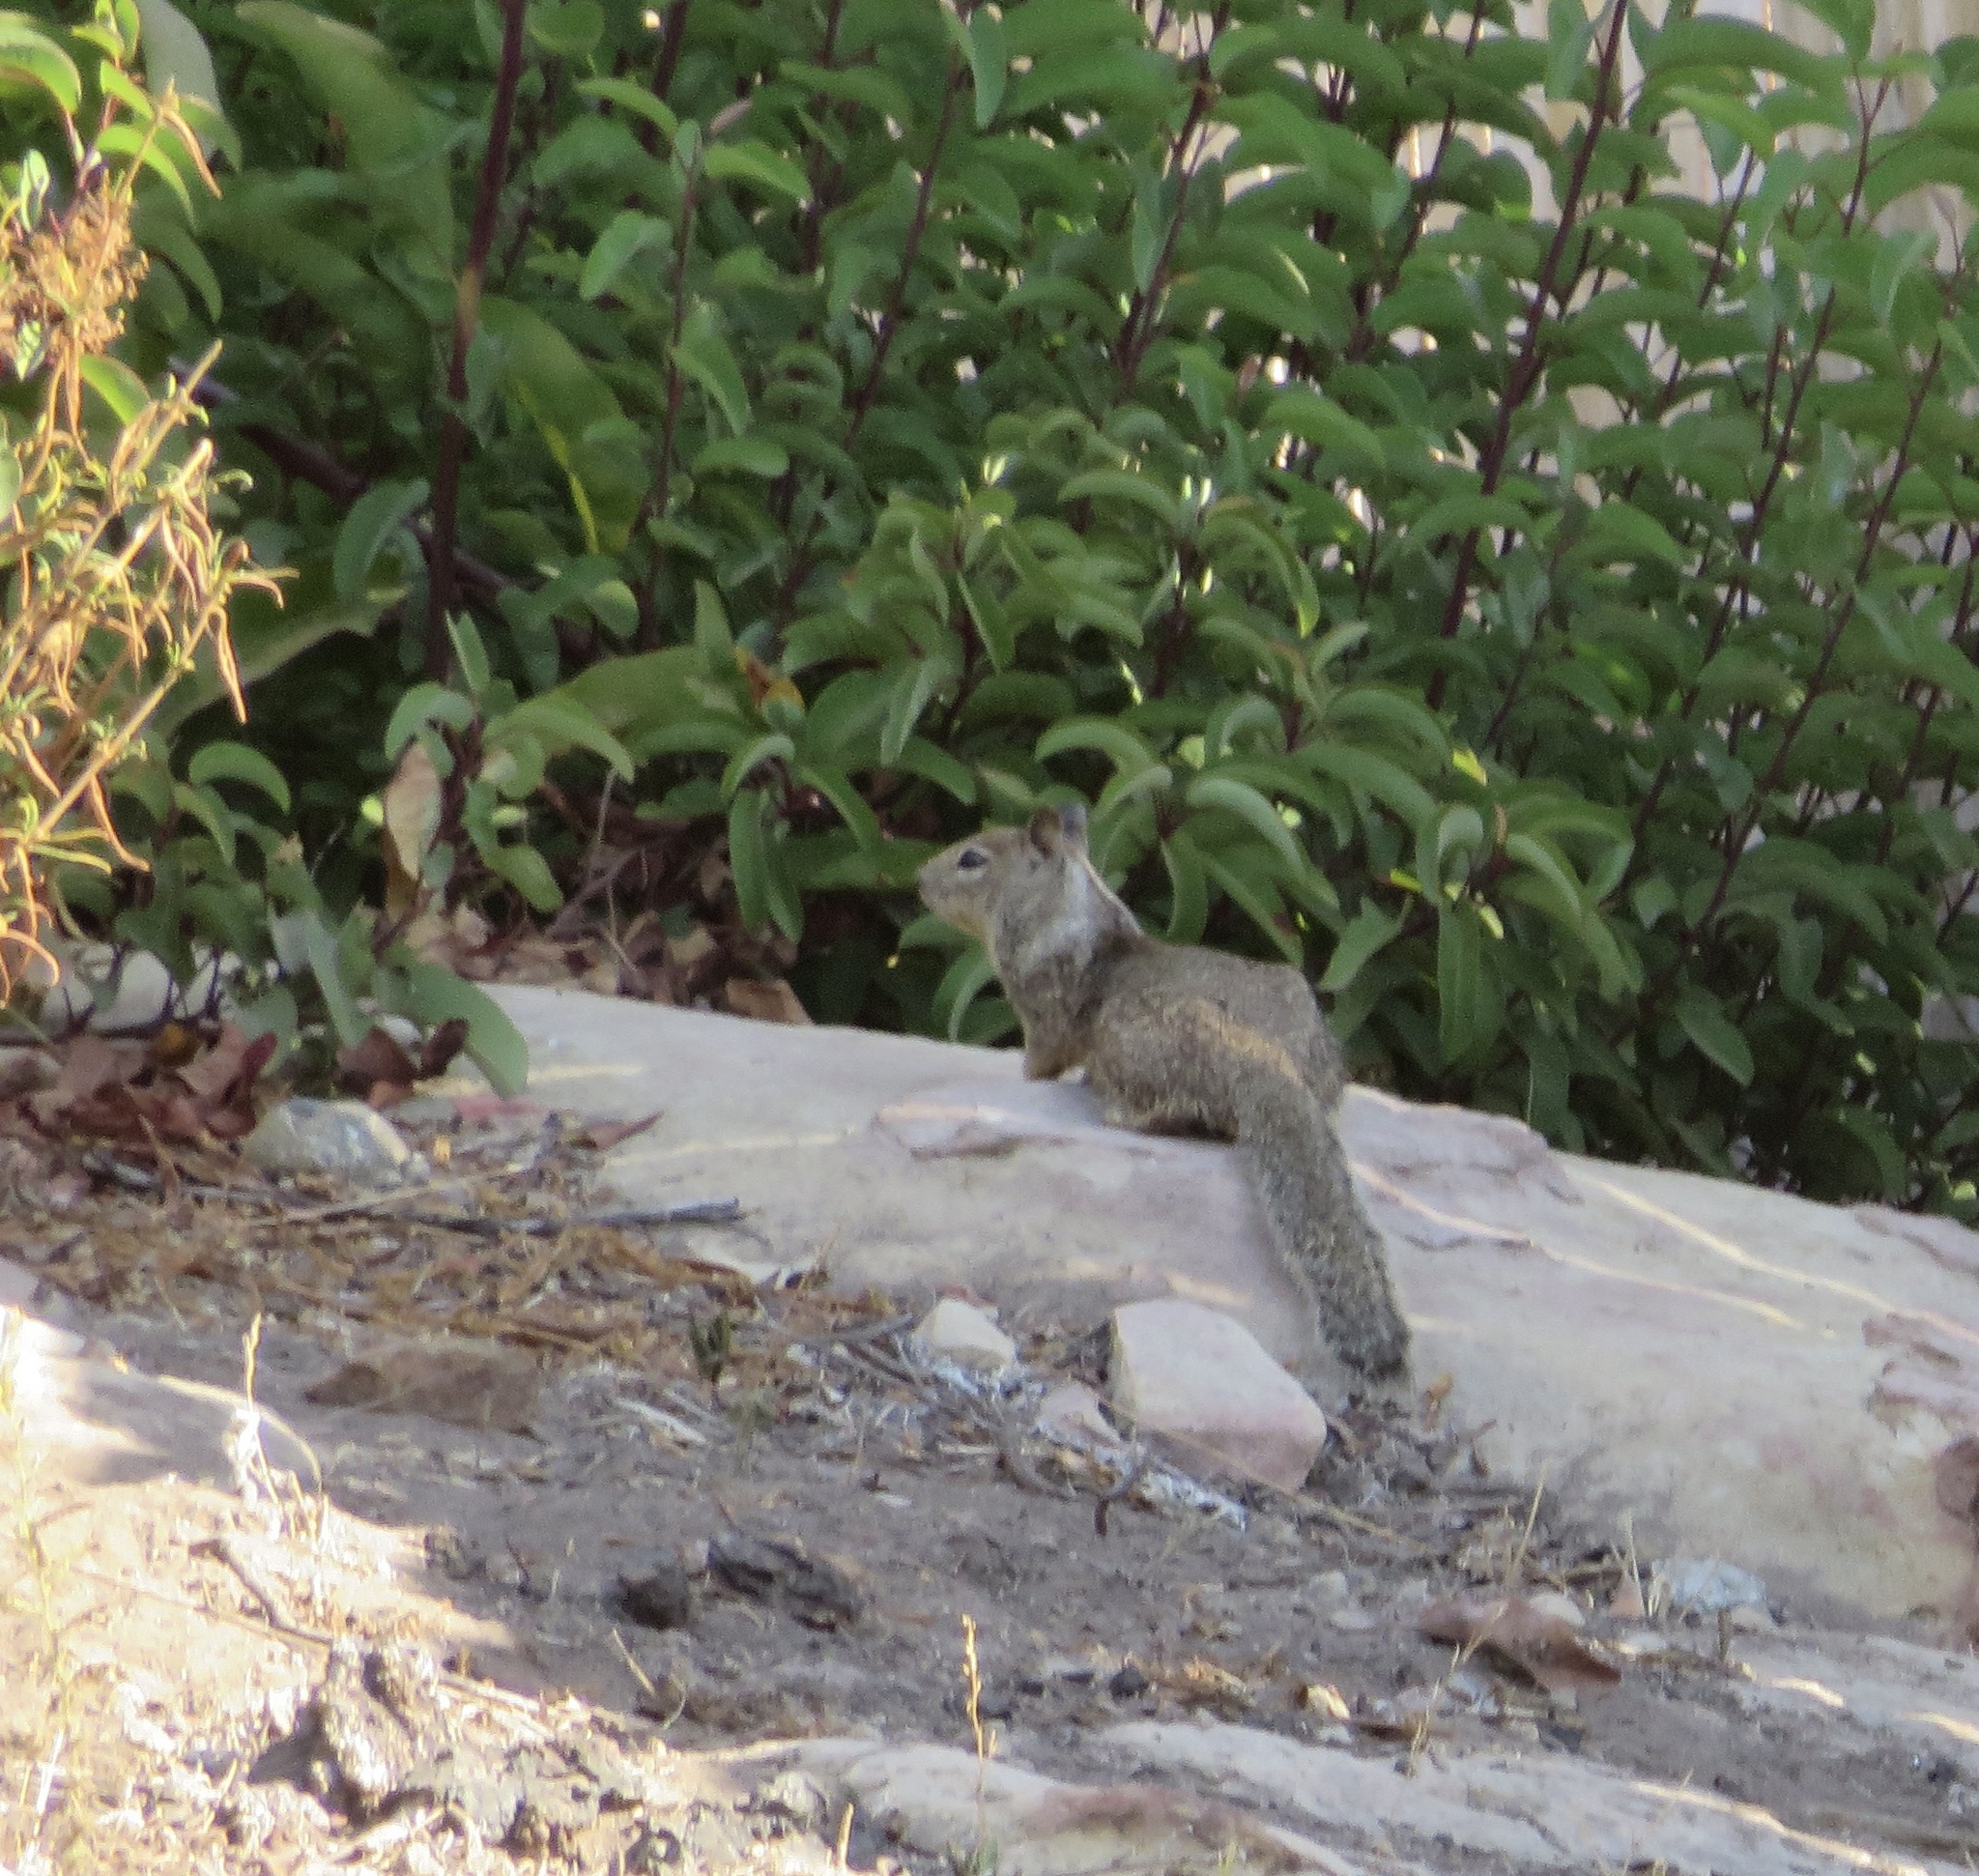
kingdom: Animalia
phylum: Chordata
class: Mammalia
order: Rodentia
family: Sciuridae
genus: Otospermophilus
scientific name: Otospermophilus beecheyi
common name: California ground squirrel
